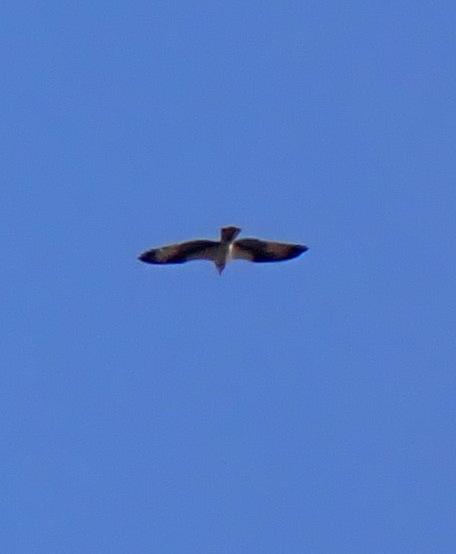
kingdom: Animalia
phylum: Chordata
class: Aves
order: Accipitriformes
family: Pandionidae
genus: Pandion
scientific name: Pandion haliaetus
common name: Osprey
